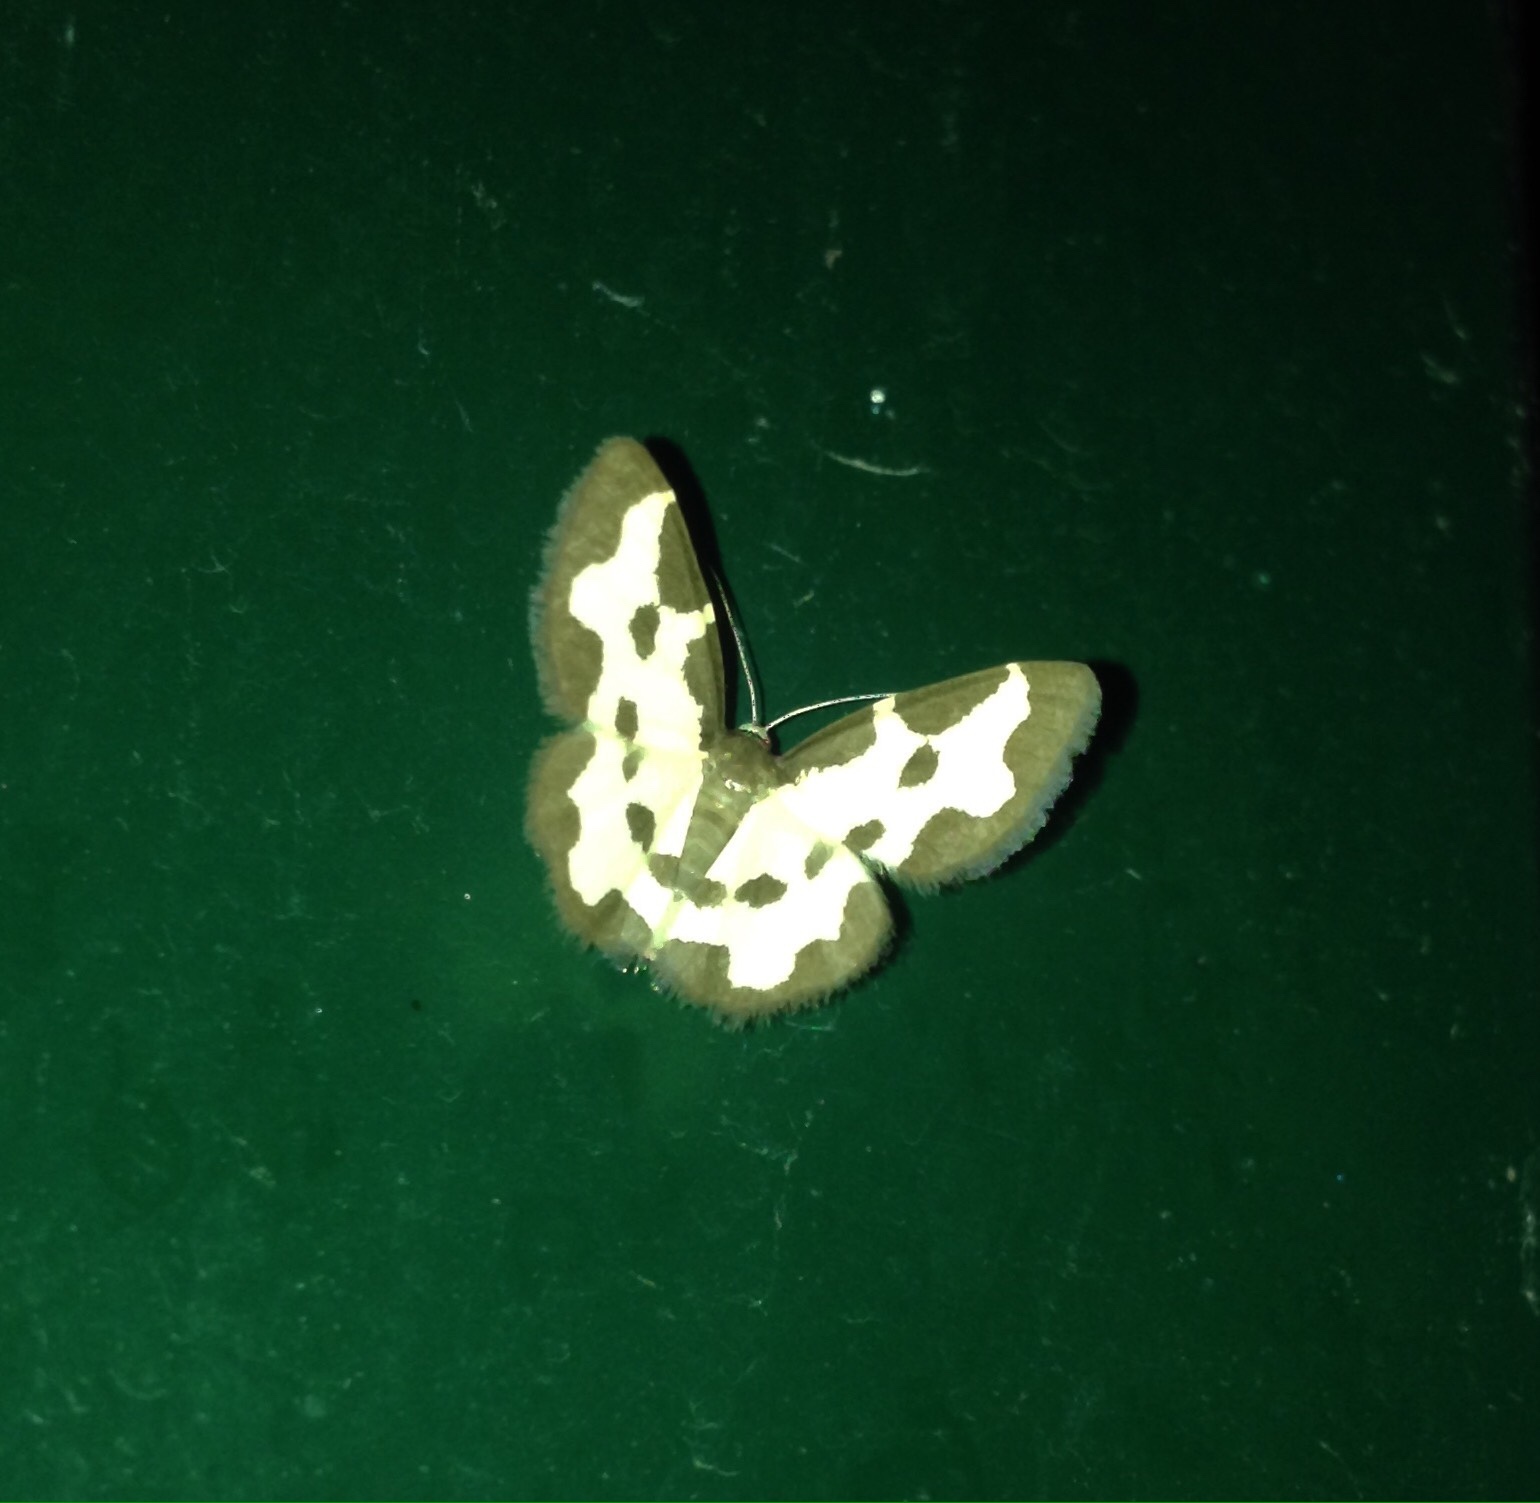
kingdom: Animalia
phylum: Arthropoda
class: Insecta
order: Lepidoptera
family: Geometridae
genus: Lomaspilis
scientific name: Lomaspilis marginata
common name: Clouded border
